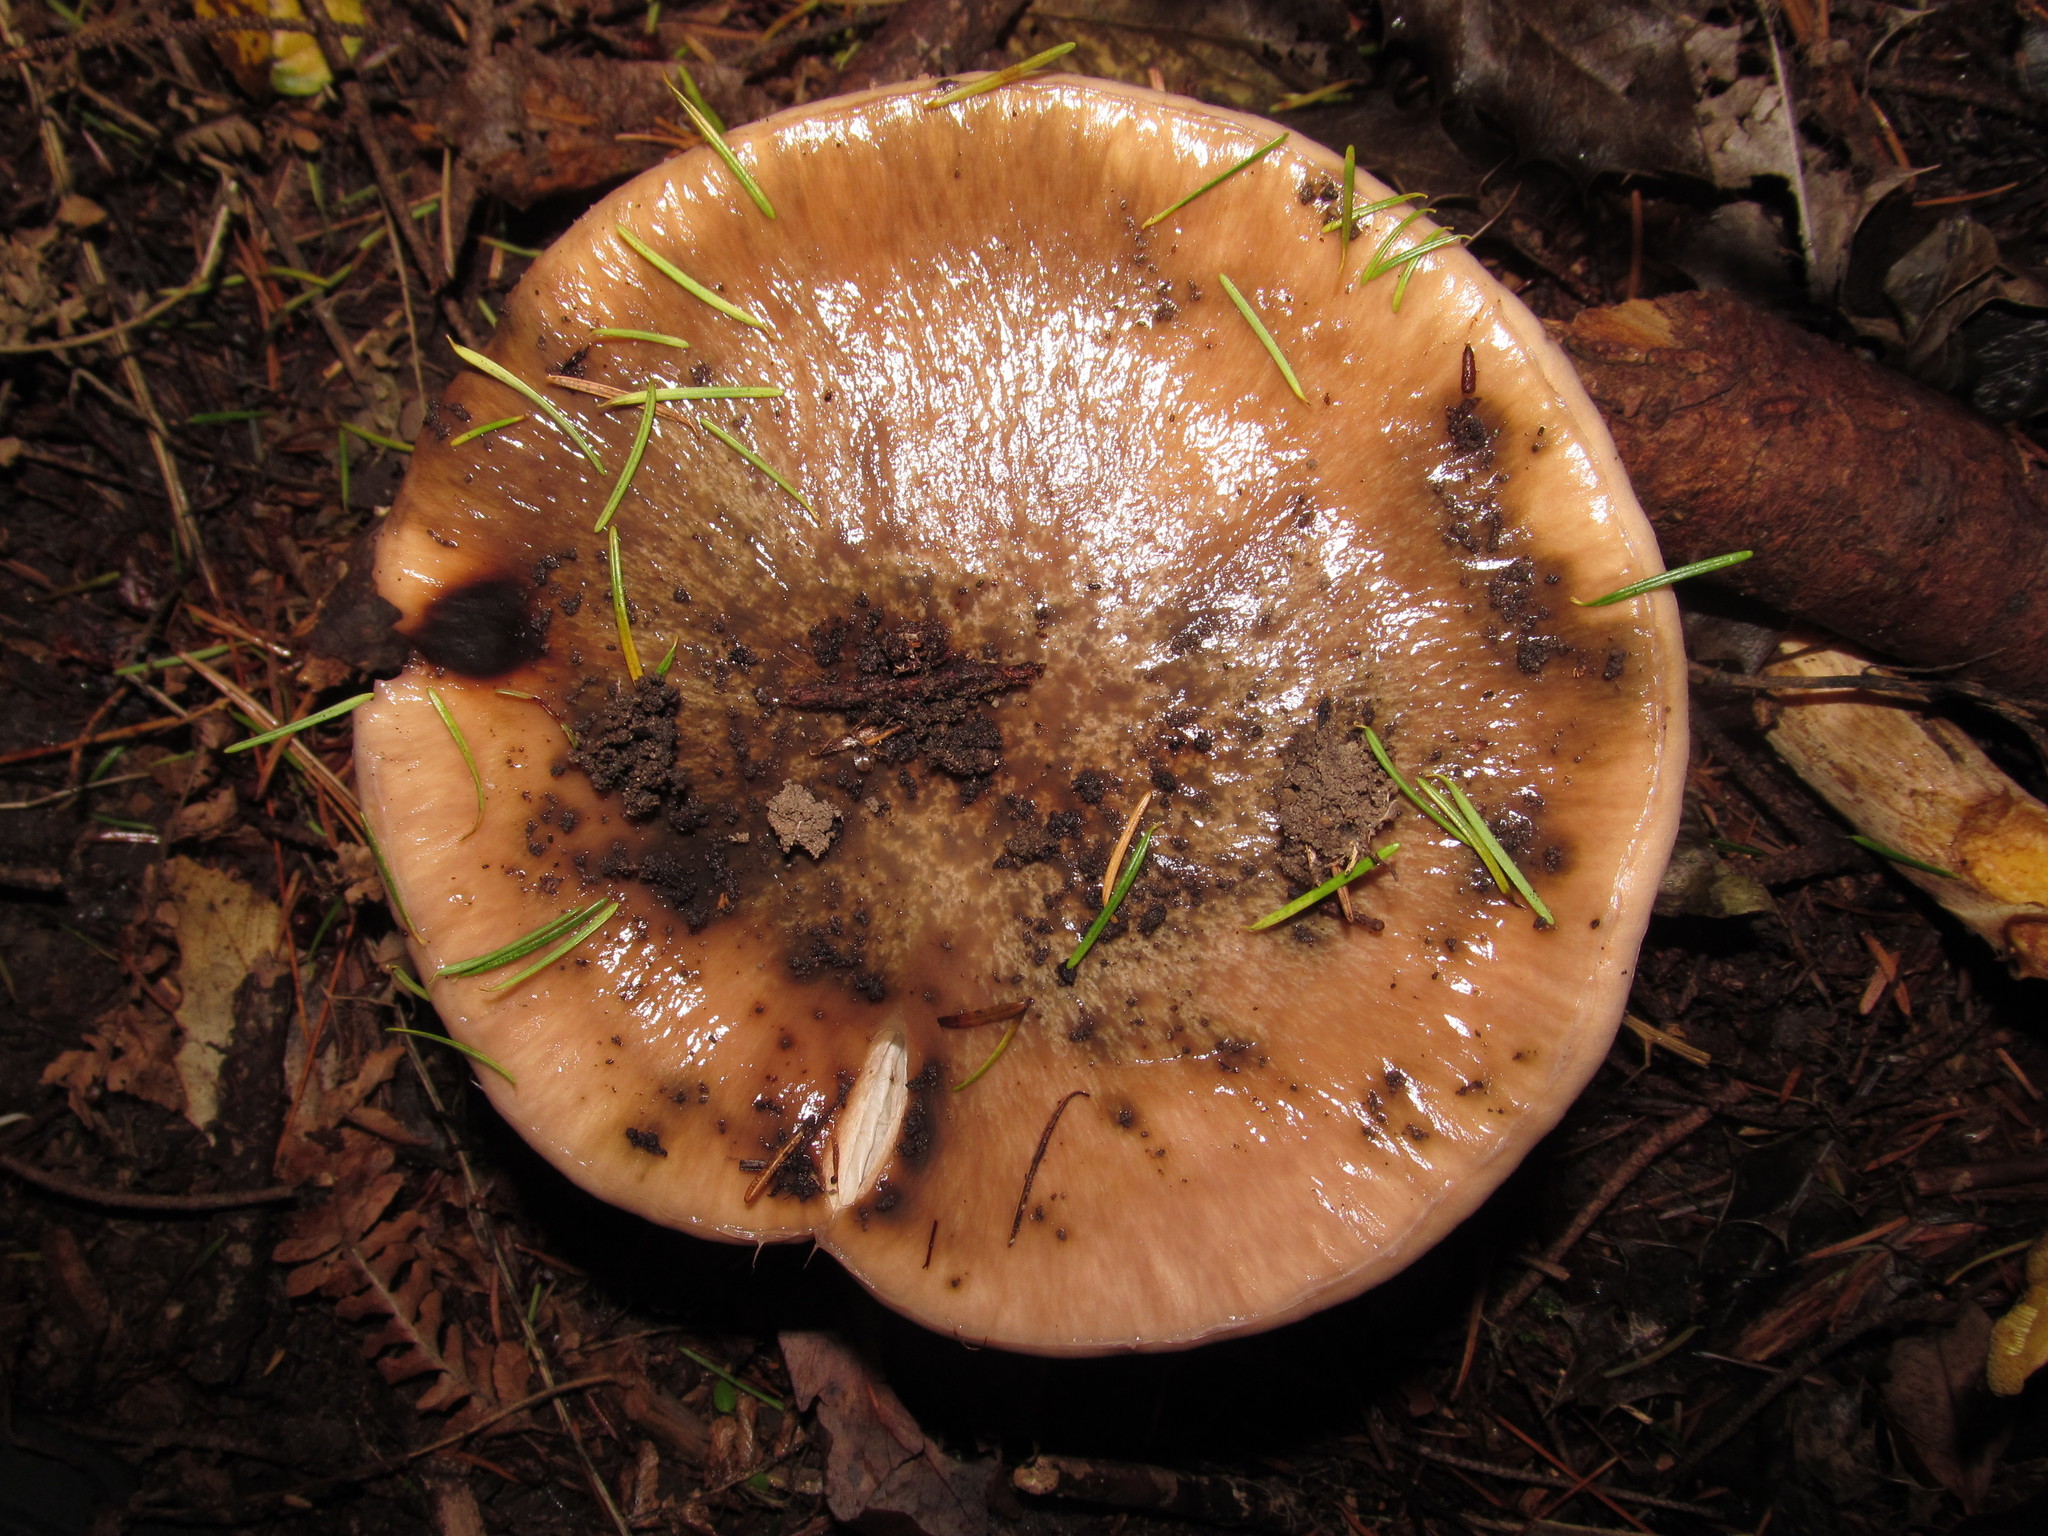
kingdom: Fungi
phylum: Basidiomycota
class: Agaricomycetes
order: Boletales
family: Gomphidiaceae
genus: Gomphidius
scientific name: Gomphidius oregonensis
